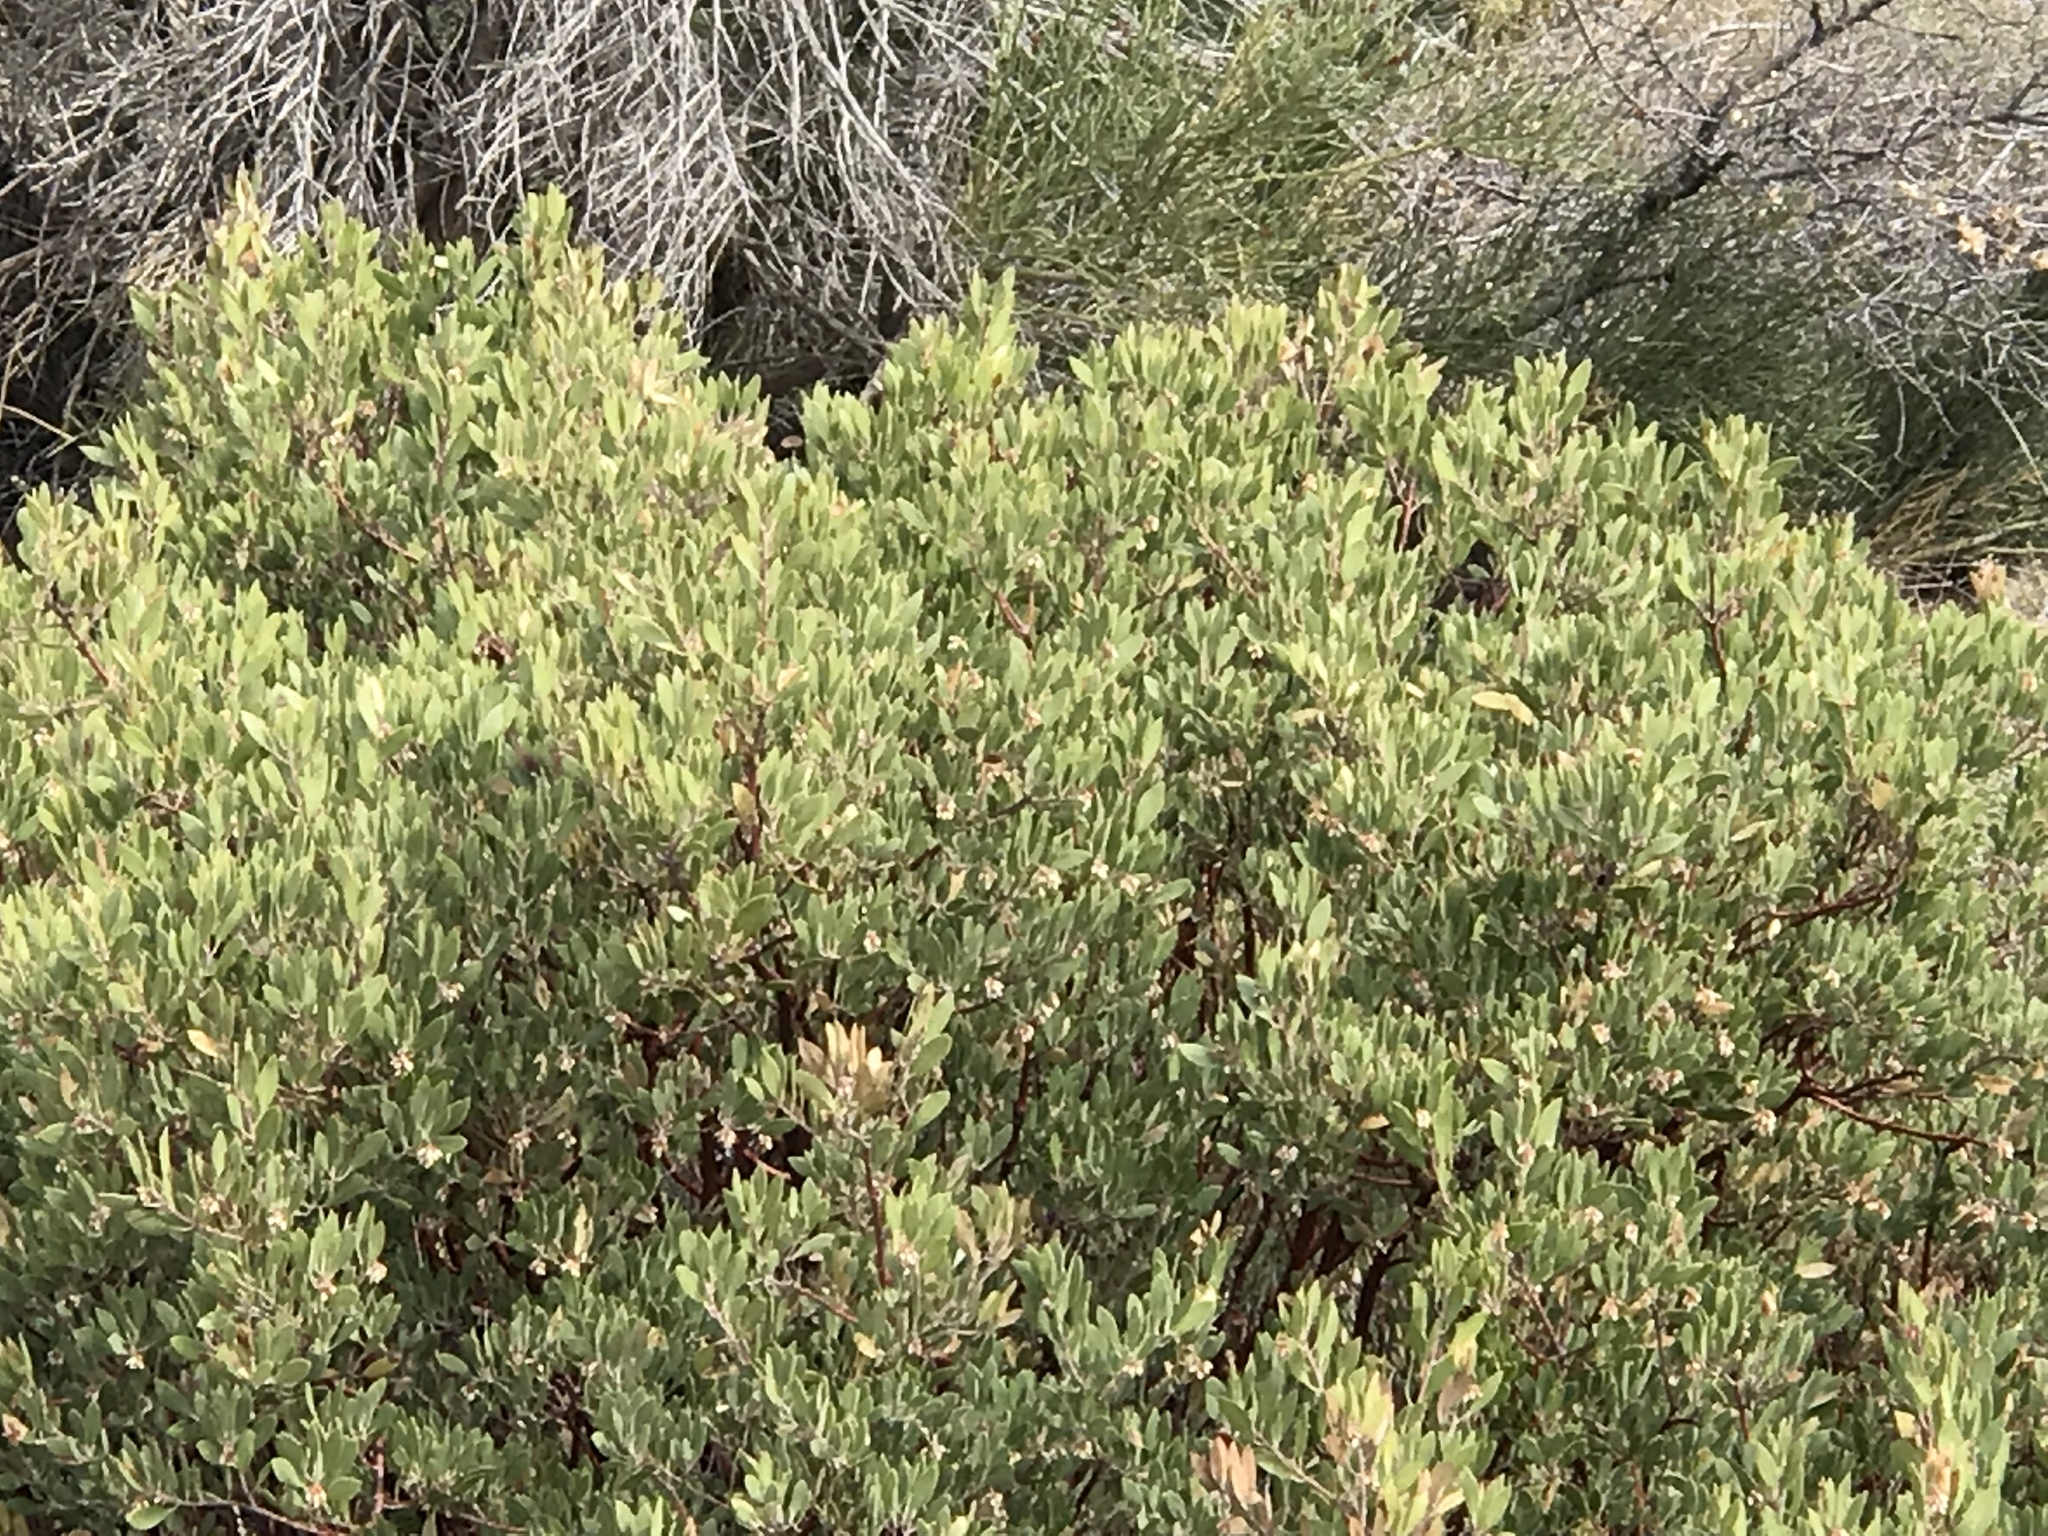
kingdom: Plantae
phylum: Tracheophyta
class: Magnoliopsida
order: Ericales
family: Ericaceae
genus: Arctostaphylos
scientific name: Arctostaphylos pungens
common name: Mexican manzanita
